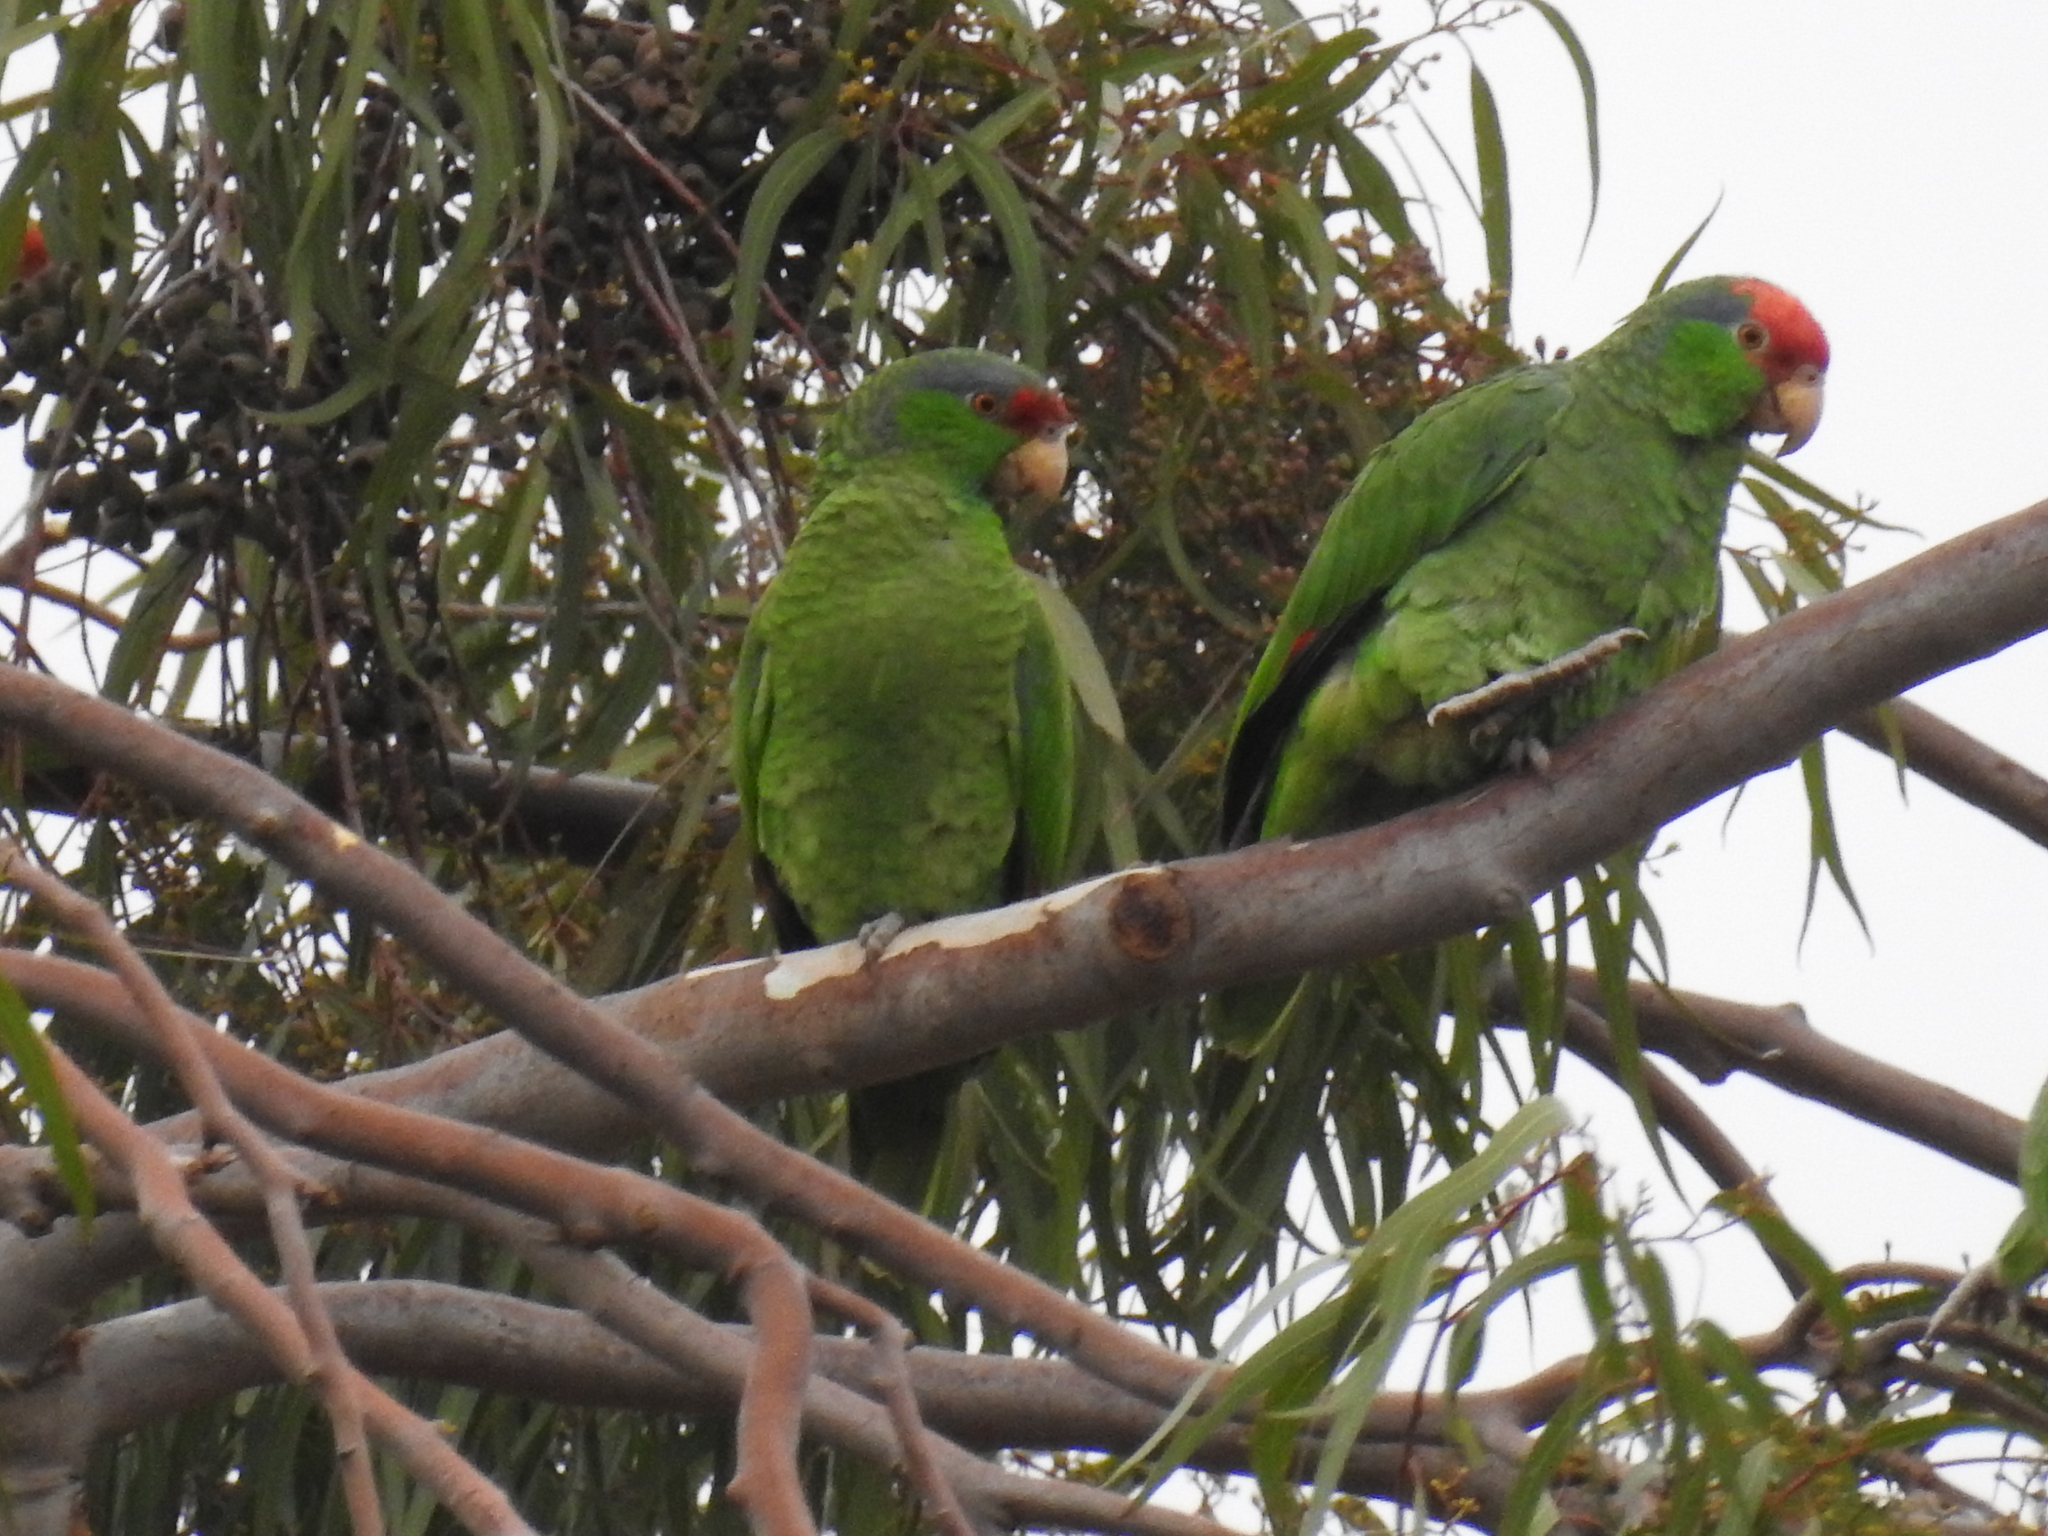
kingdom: Animalia
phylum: Chordata
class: Aves
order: Psittaciformes
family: Psittacidae
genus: Amazona
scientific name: Amazona viridigenalis
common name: Red-crowned amazon
